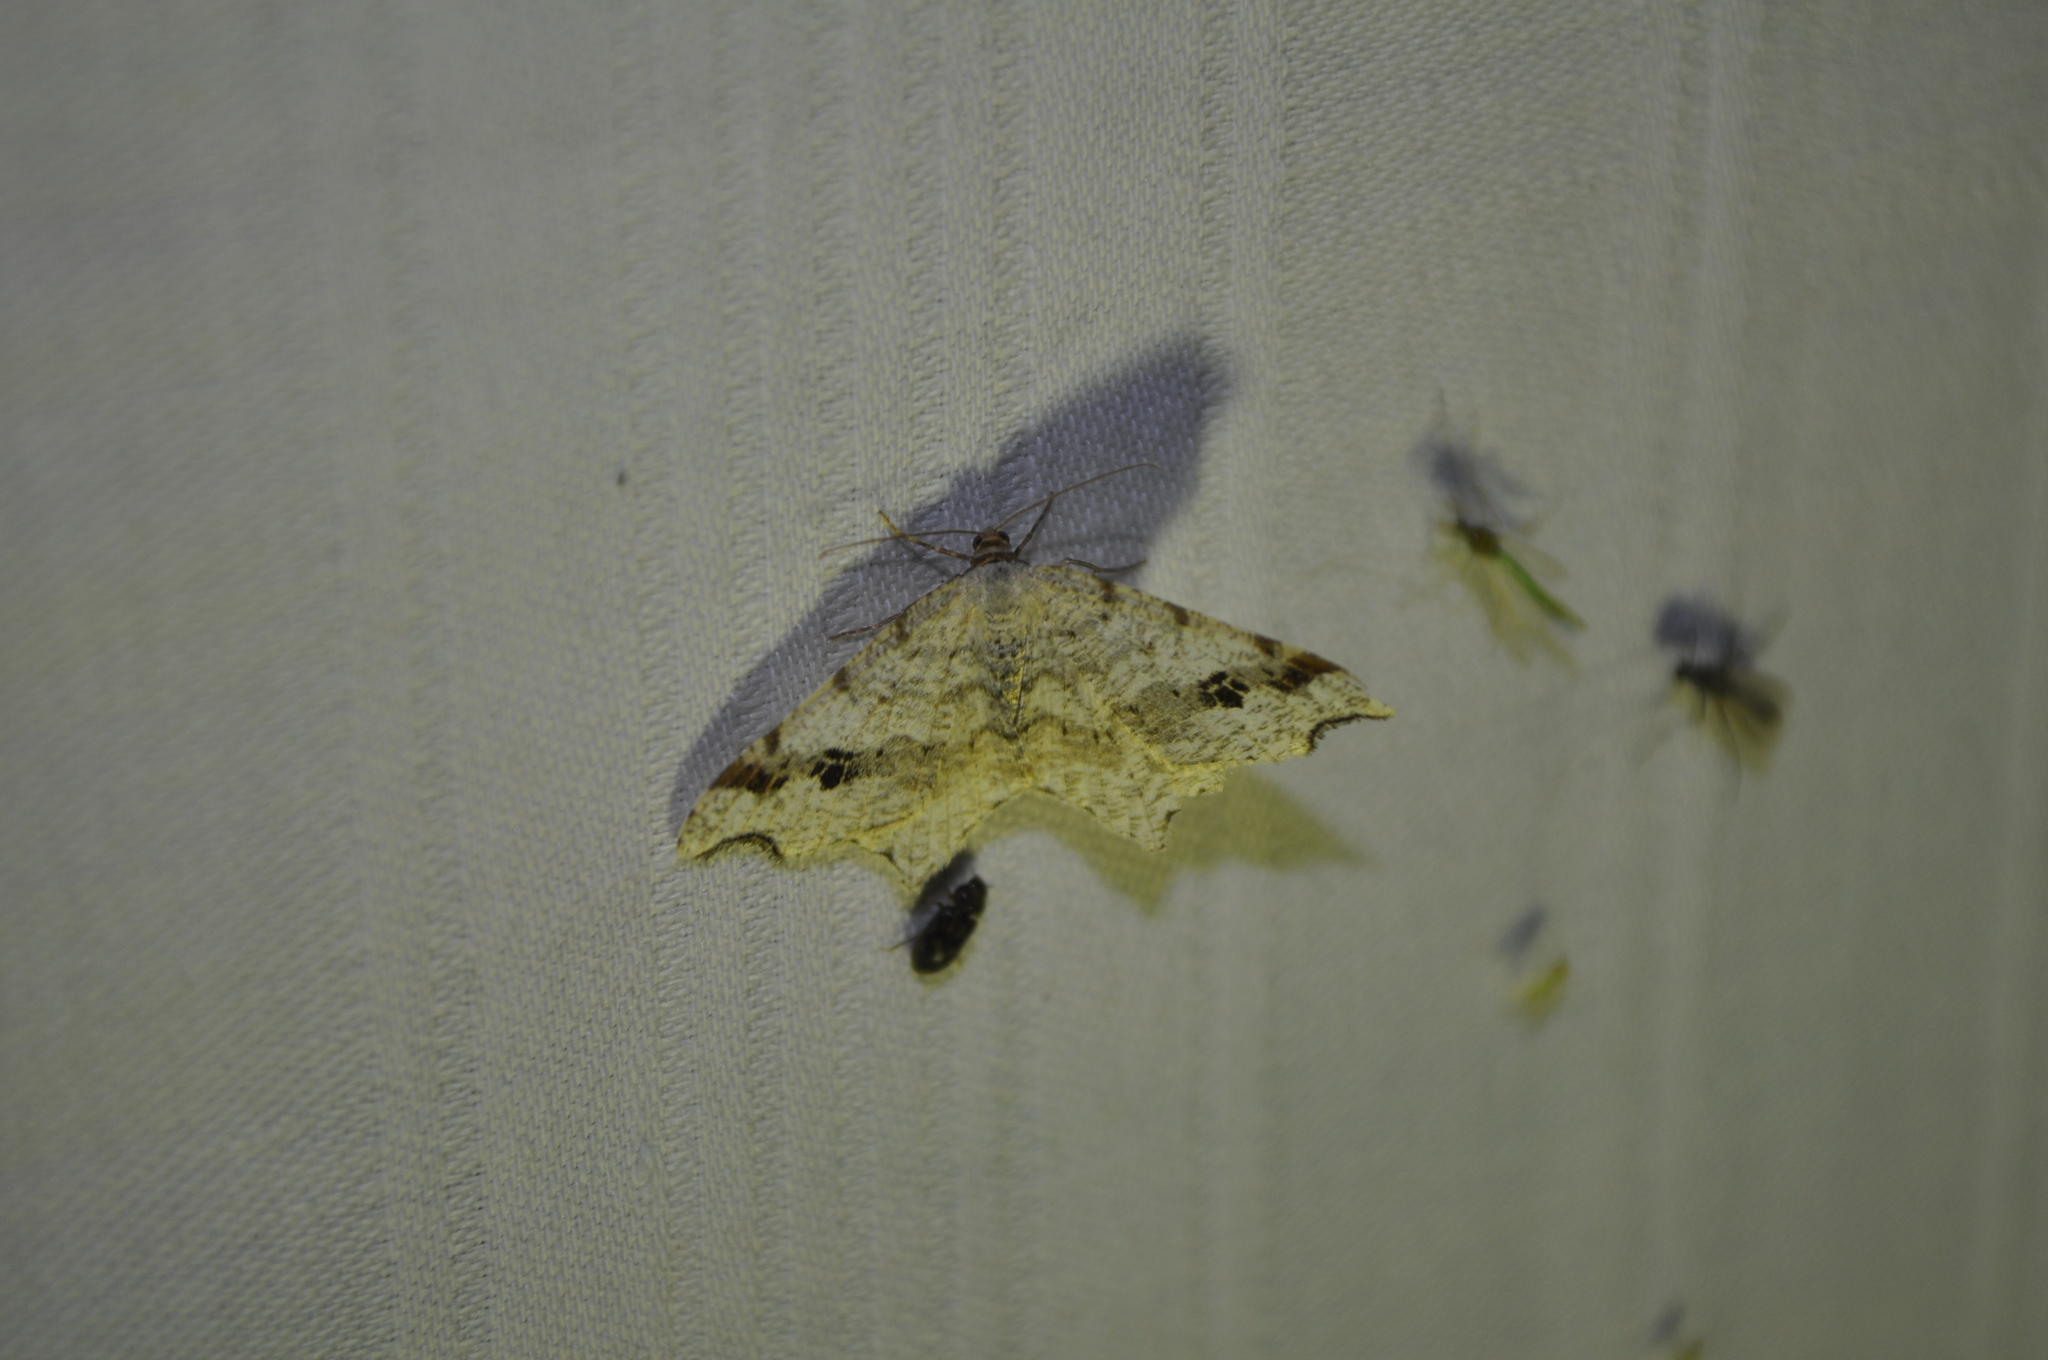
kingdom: Animalia
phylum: Arthropoda
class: Insecta
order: Lepidoptera
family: Geometridae
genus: Macaria
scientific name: Macaria notata
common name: Peacock moth
